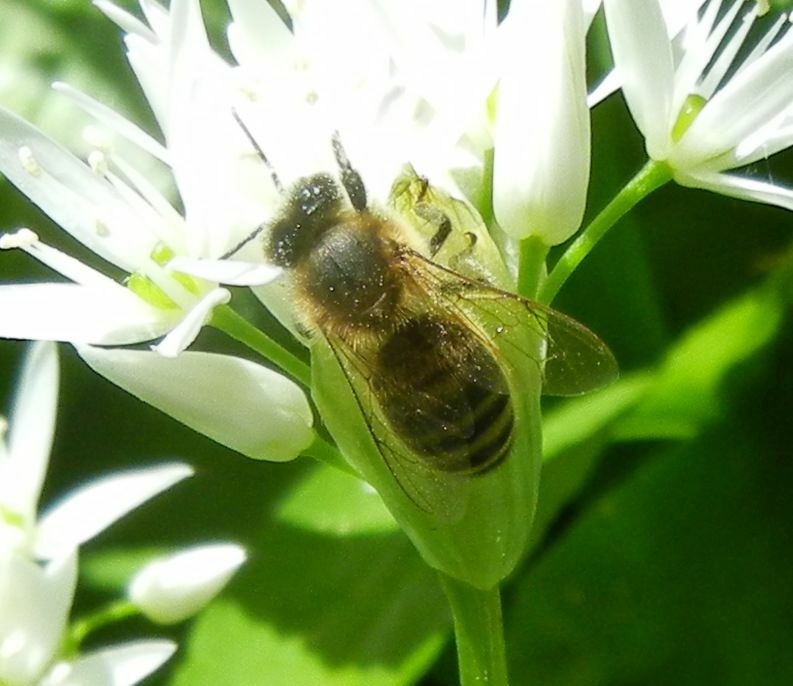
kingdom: Animalia
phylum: Arthropoda
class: Insecta
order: Hymenoptera
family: Apidae
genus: Apis
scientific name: Apis mellifera
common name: Honey bee
